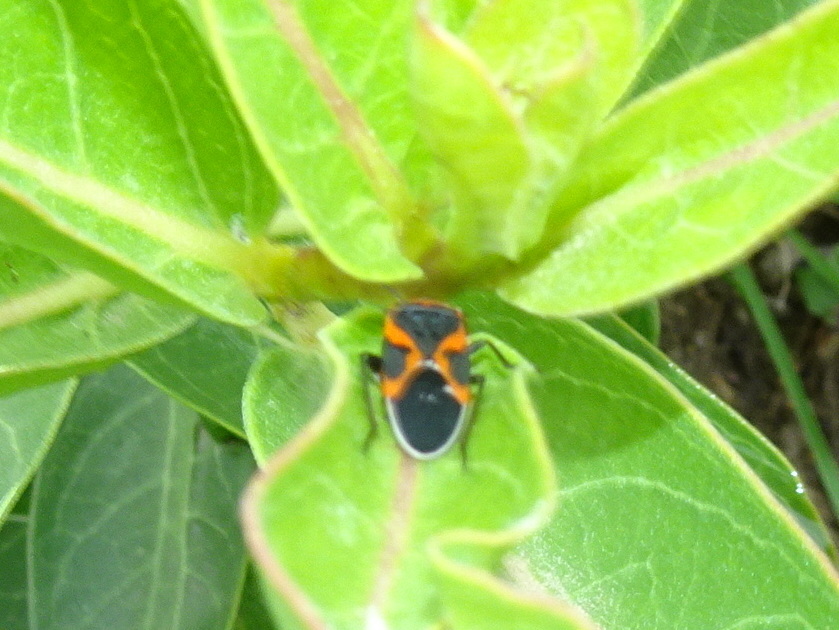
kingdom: Animalia
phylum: Arthropoda
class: Insecta
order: Hemiptera
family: Lygaeidae
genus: Lygaeus
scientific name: Lygaeus kalmii
